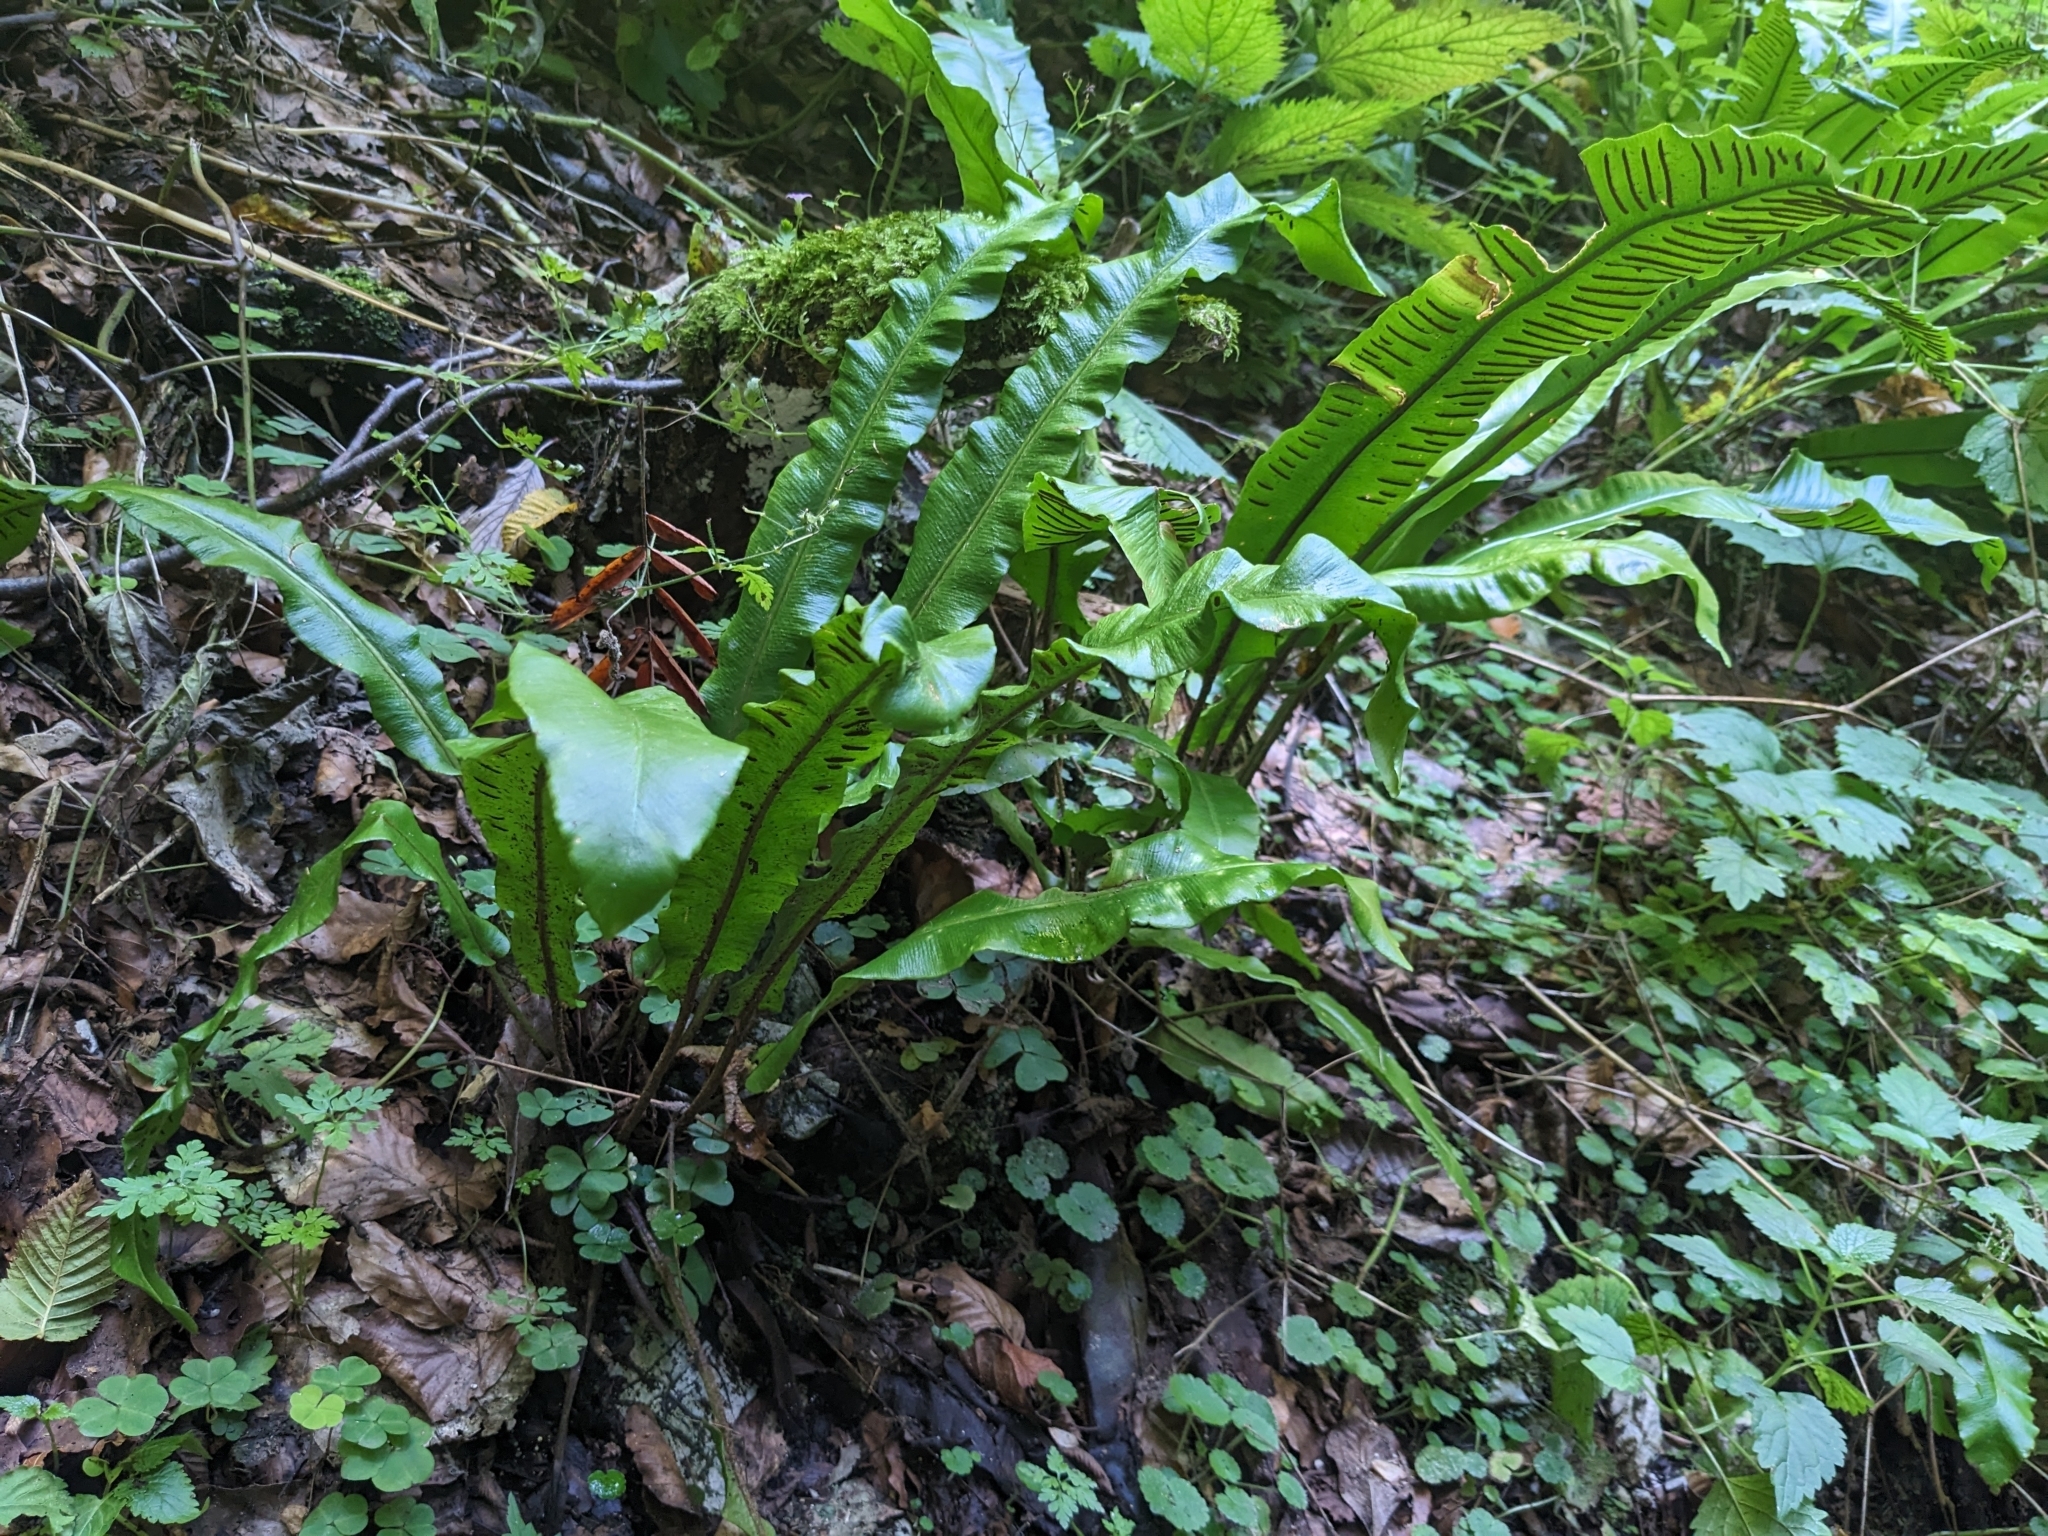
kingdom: Plantae
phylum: Tracheophyta
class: Polypodiopsida
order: Polypodiales
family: Aspleniaceae
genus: Asplenium
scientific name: Asplenium scolopendrium
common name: Hart's-tongue fern
